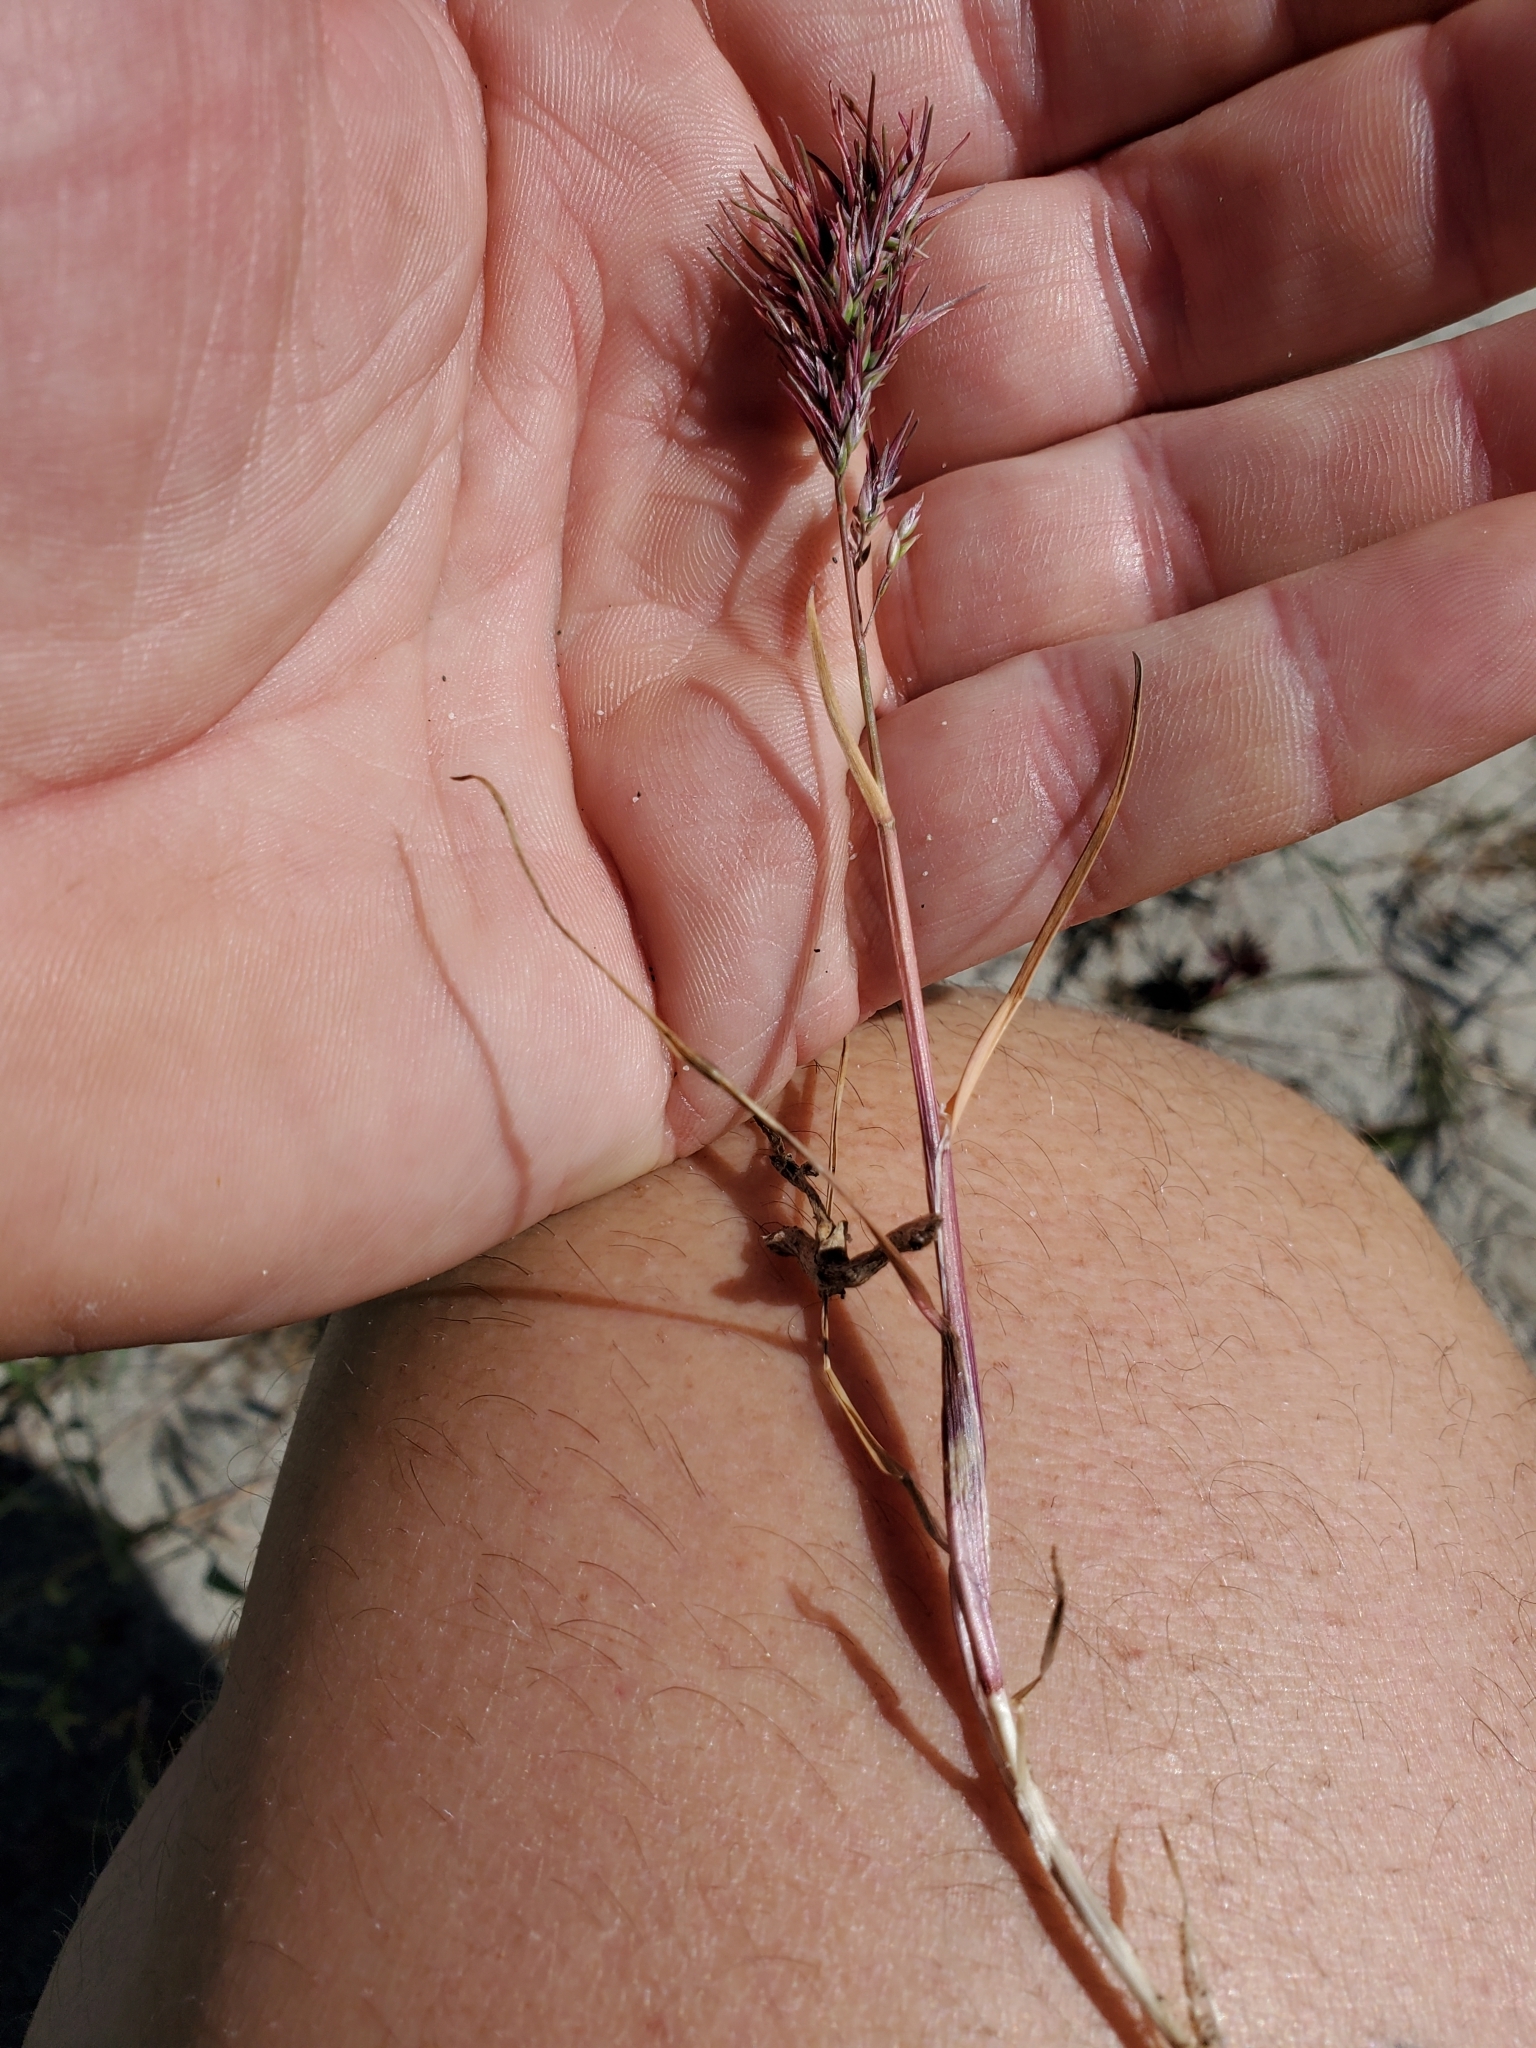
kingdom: Plantae
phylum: Tracheophyta
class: Liliopsida
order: Poales
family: Poaceae
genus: Poa
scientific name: Poa bulbosa
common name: Bulbous bluegrass
